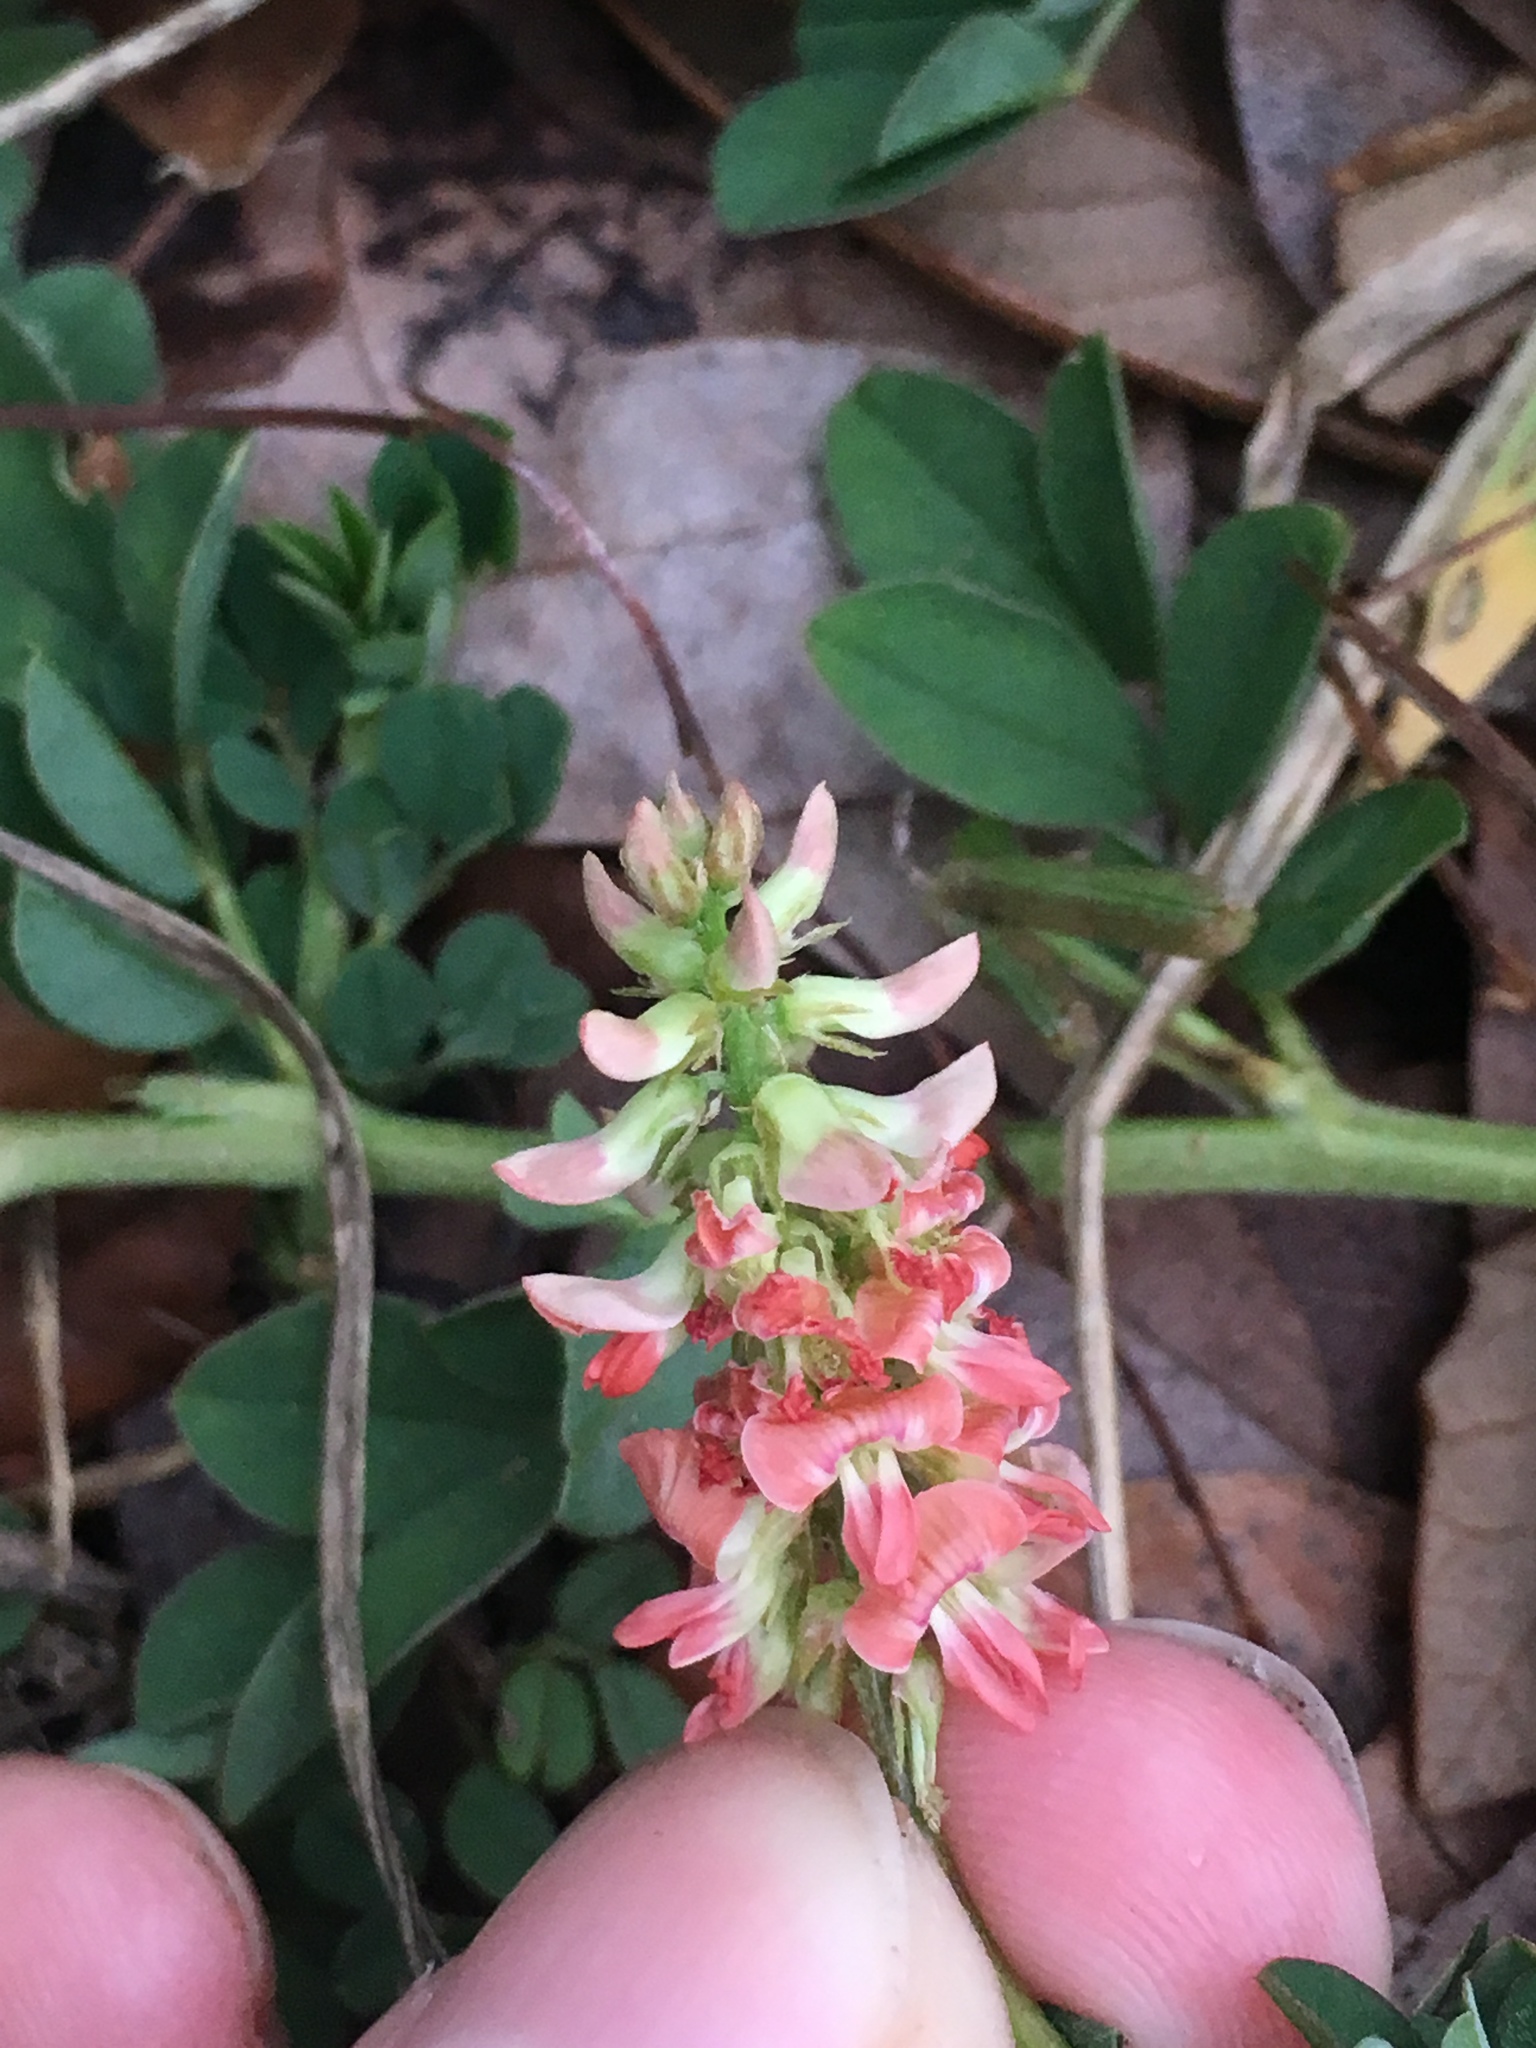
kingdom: Plantae
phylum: Tracheophyta
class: Magnoliopsida
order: Fabales
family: Fabaceae
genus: Indigofera
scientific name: Indigofera spicata
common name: Creeping indigo
